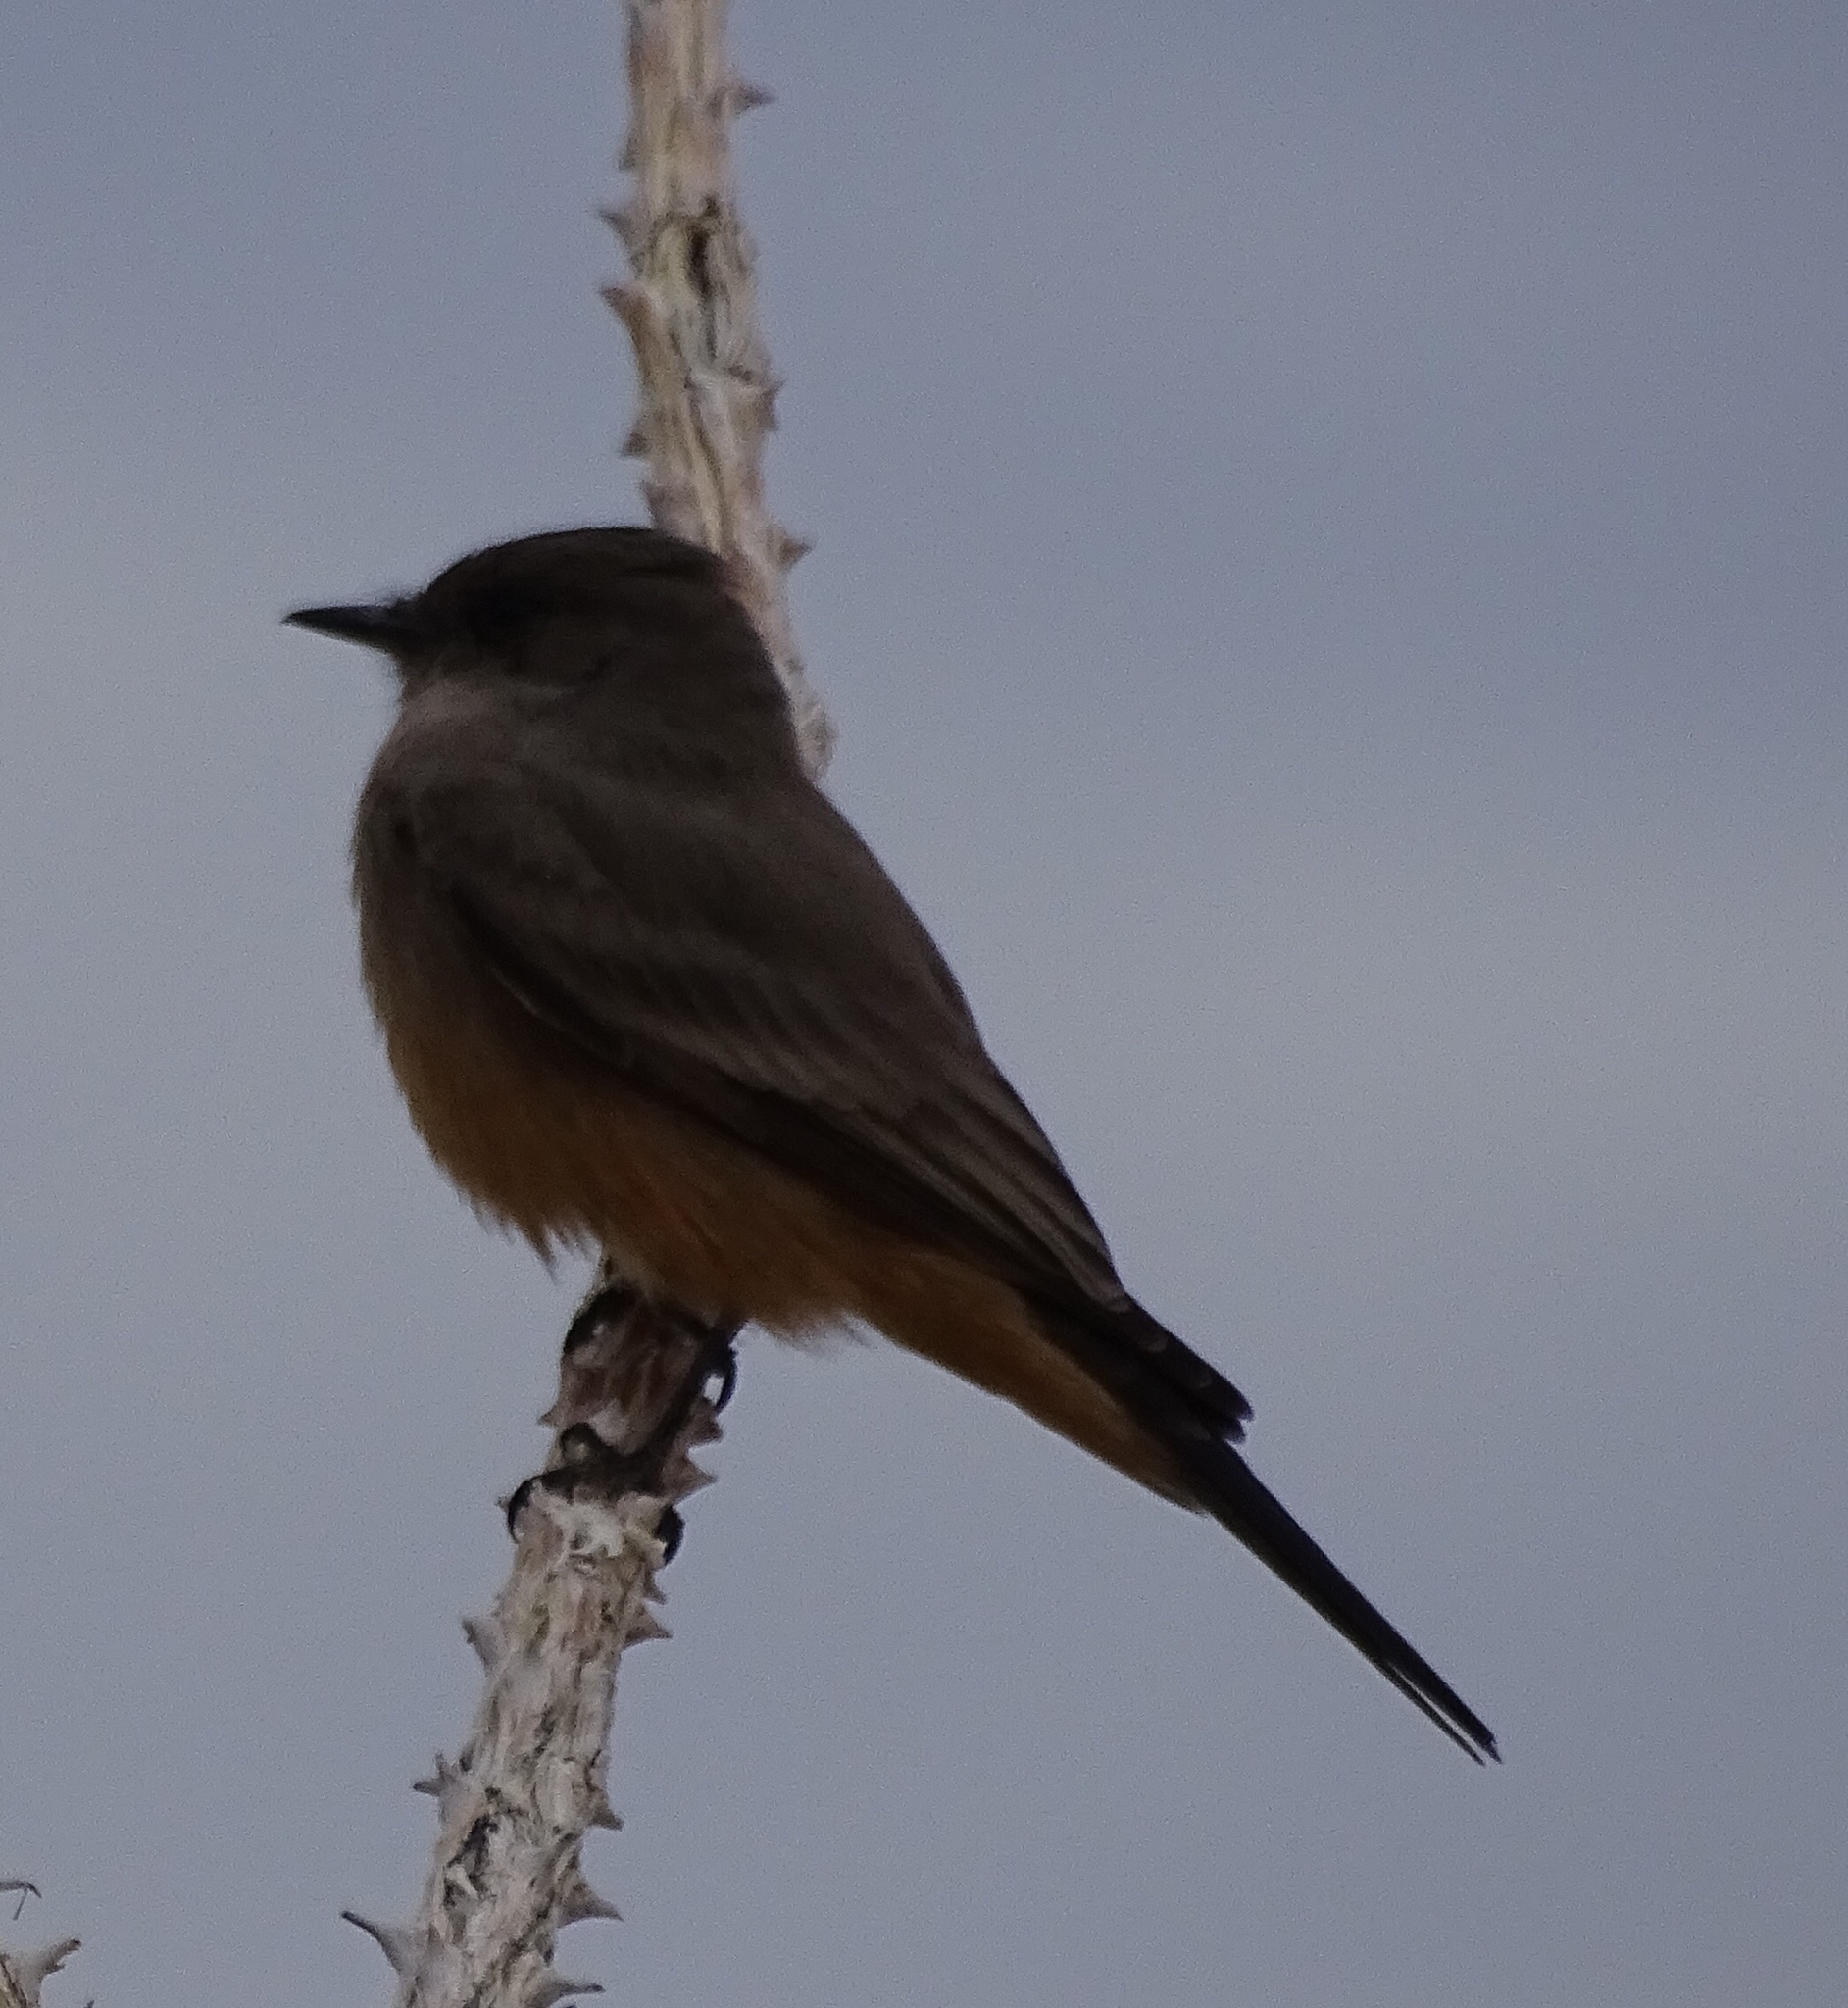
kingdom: Animalia
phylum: Chordata
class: Aves
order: Passeriformes
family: Tyrannidae
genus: Sayornis
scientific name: Sayornis saya
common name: Say's phoebe
